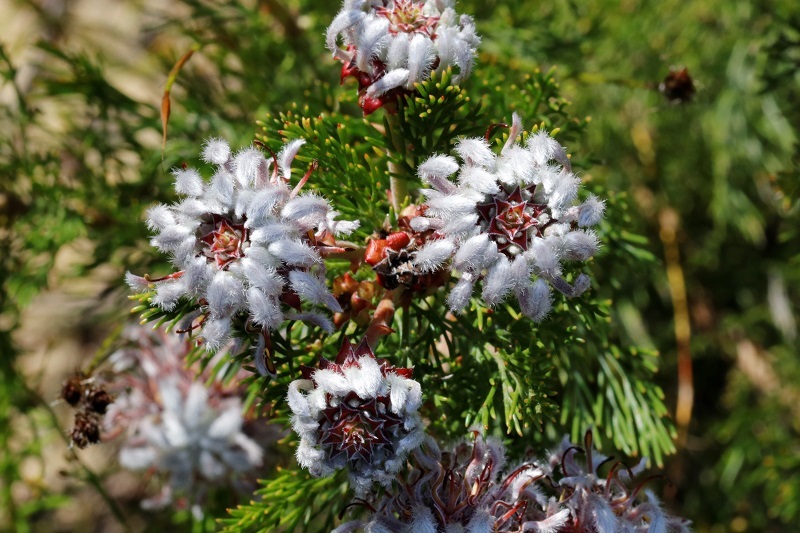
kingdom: Plantae
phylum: Tracheophyta
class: Magnoliopsida
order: Proteales
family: Proteaceae
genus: Serruria
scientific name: Serruria acrocarpa
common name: Common rootstock spiderhead
